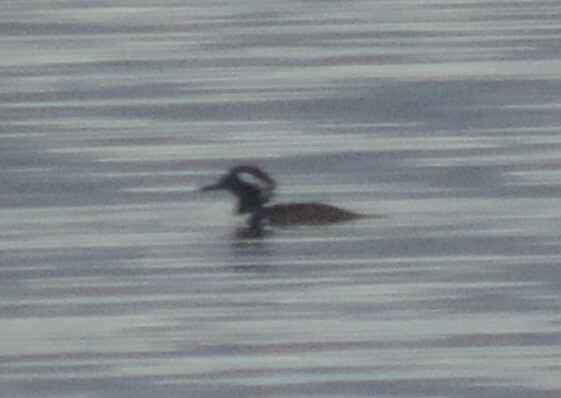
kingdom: Animalia
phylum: Chordata
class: Aves
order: Anseriformes
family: Anatidae
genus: Lophodytes
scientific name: Lophodytes cucullatus
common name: Hooded merganser
